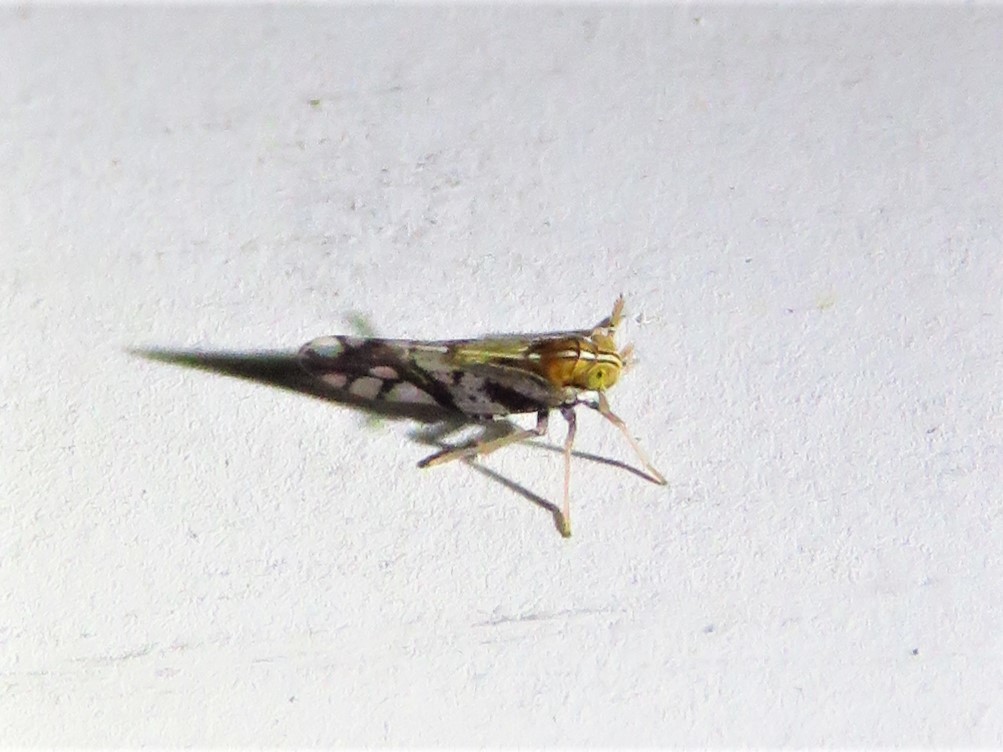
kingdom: Animalia
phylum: Arthropoda
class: Insecta
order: Hemiptera
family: Delphacidae
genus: Liburniella
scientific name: Liburniella ornata
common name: Ornate planthopper
